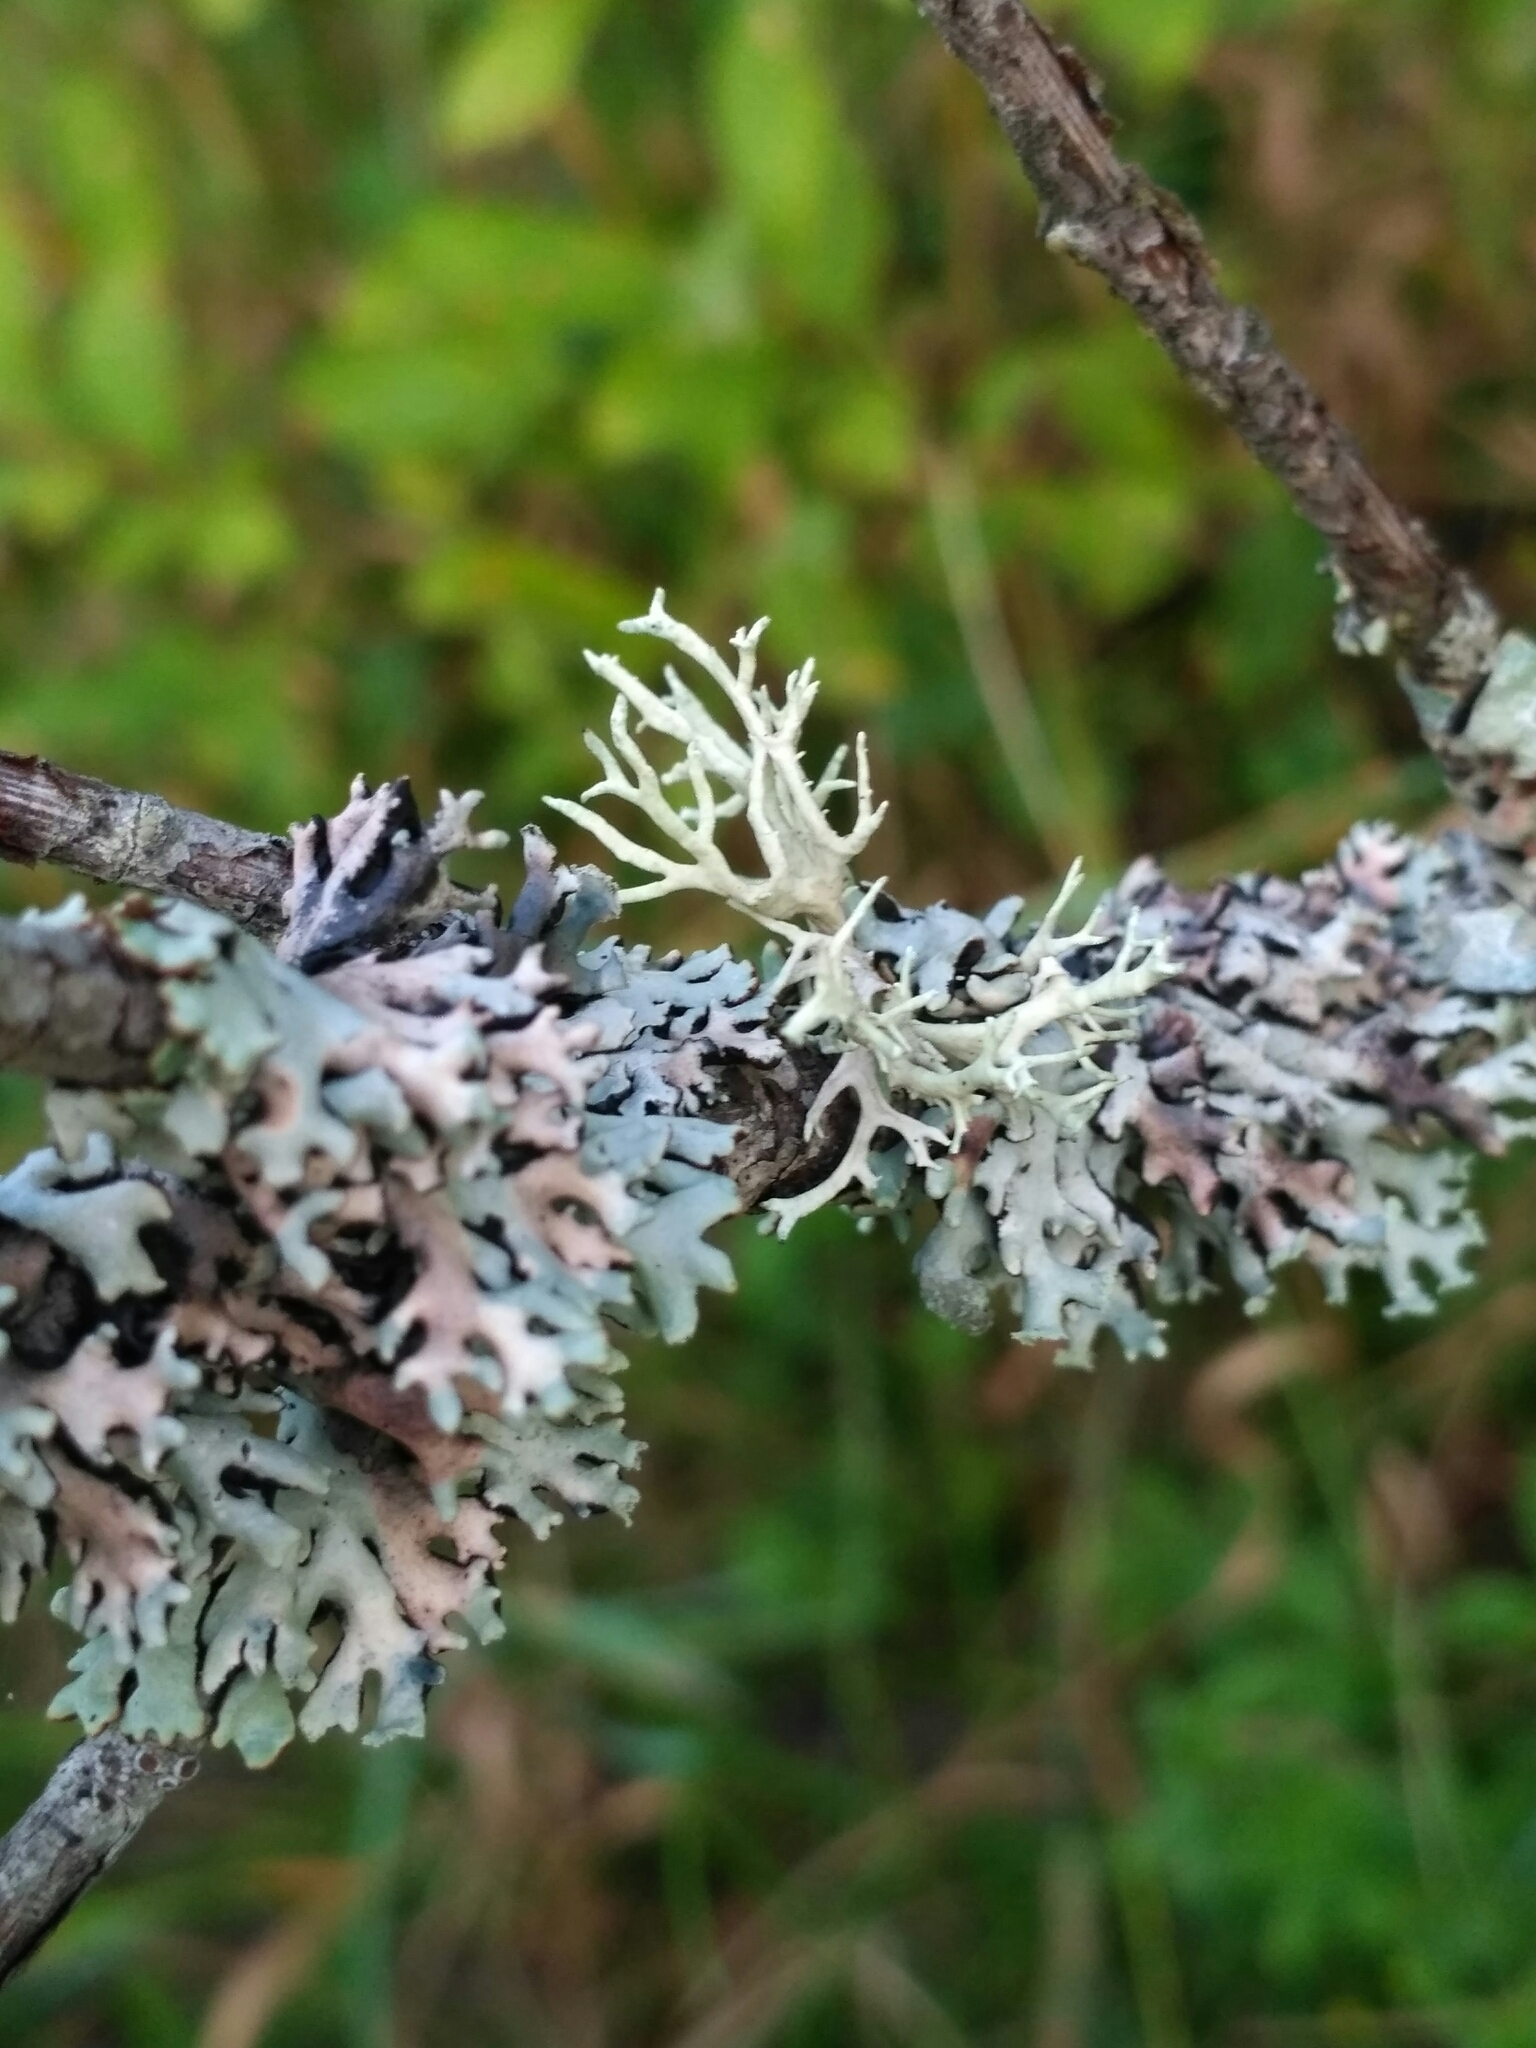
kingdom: Fungi
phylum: Ascomycota
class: Lecanoromycetes
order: Lecanorales
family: Parmeliaceae
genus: Evernia
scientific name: Evernia prunastri
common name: Oak moss
